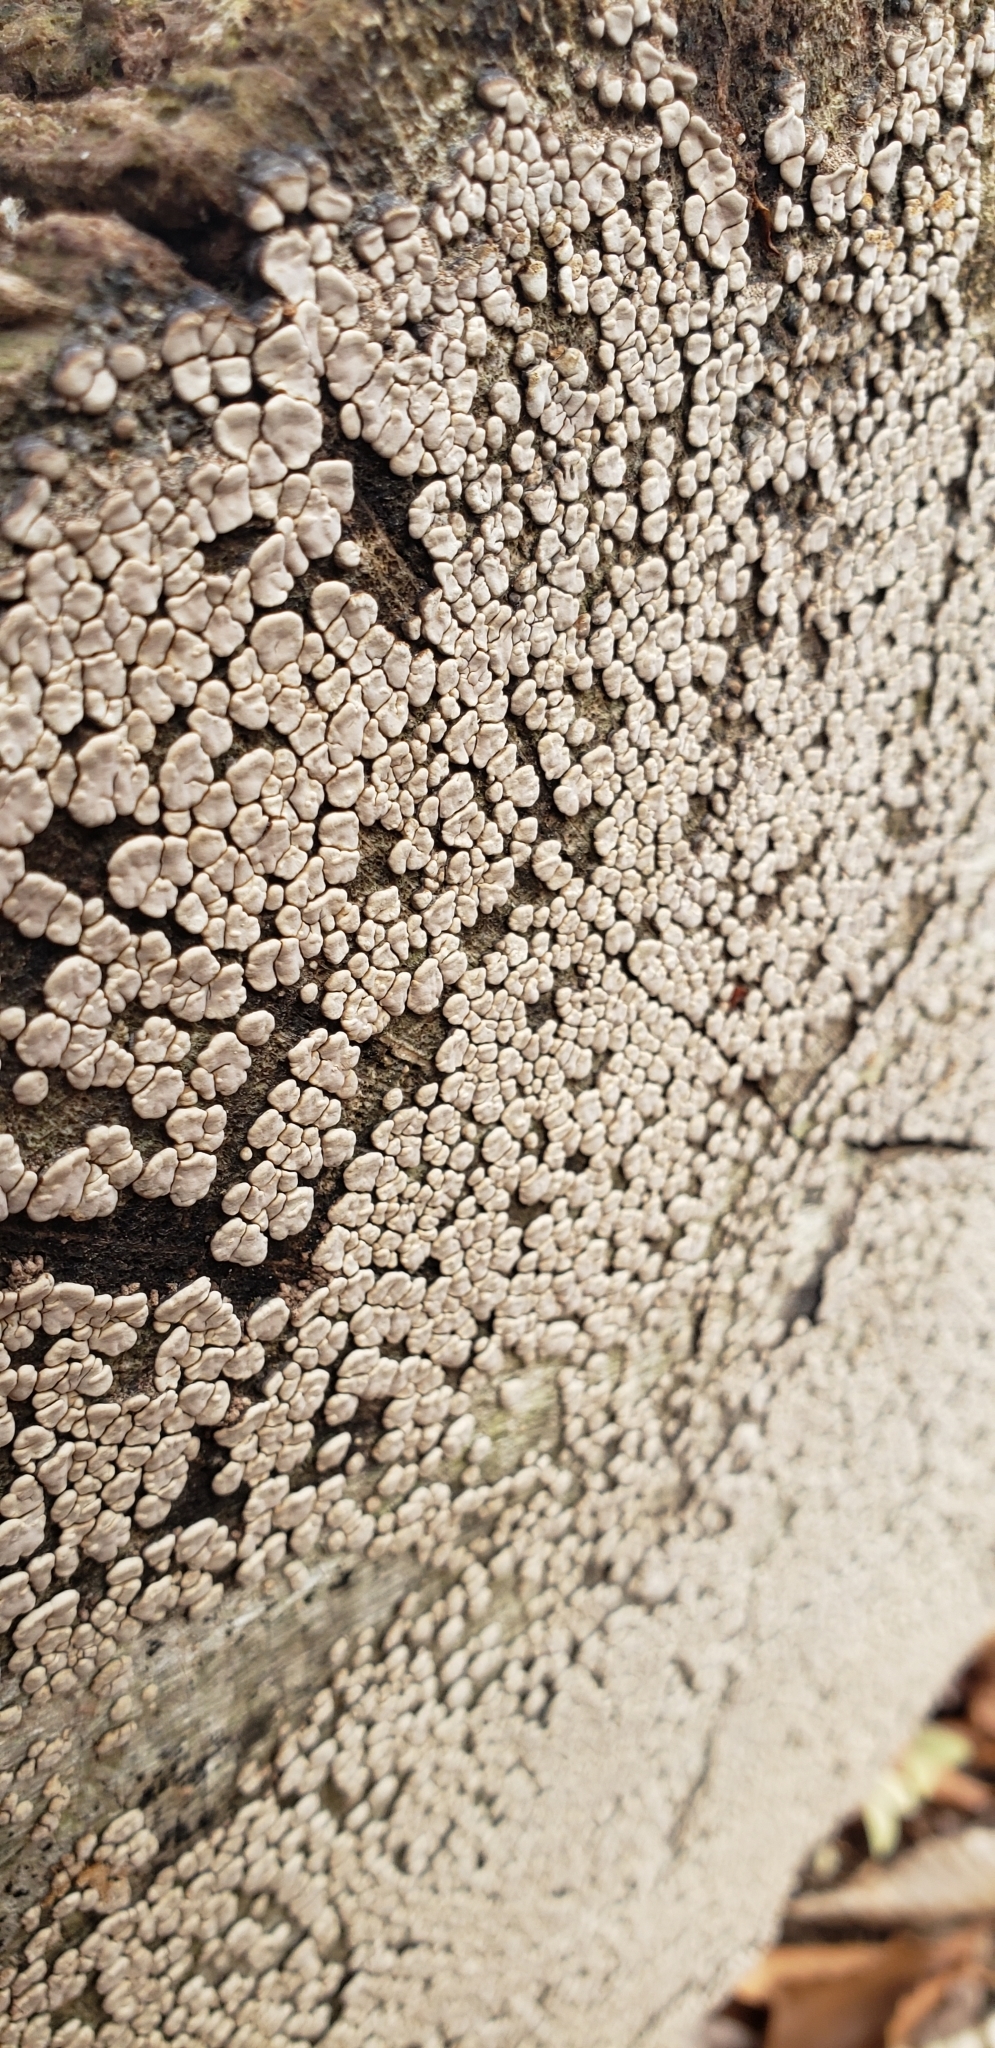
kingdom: Fungi
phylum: Basidiomycota
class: Agaricomycetes
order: Russulales
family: Stereaceae
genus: Xylobolus
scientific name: Xylobolus frustulatus
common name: Ceramic parchment
